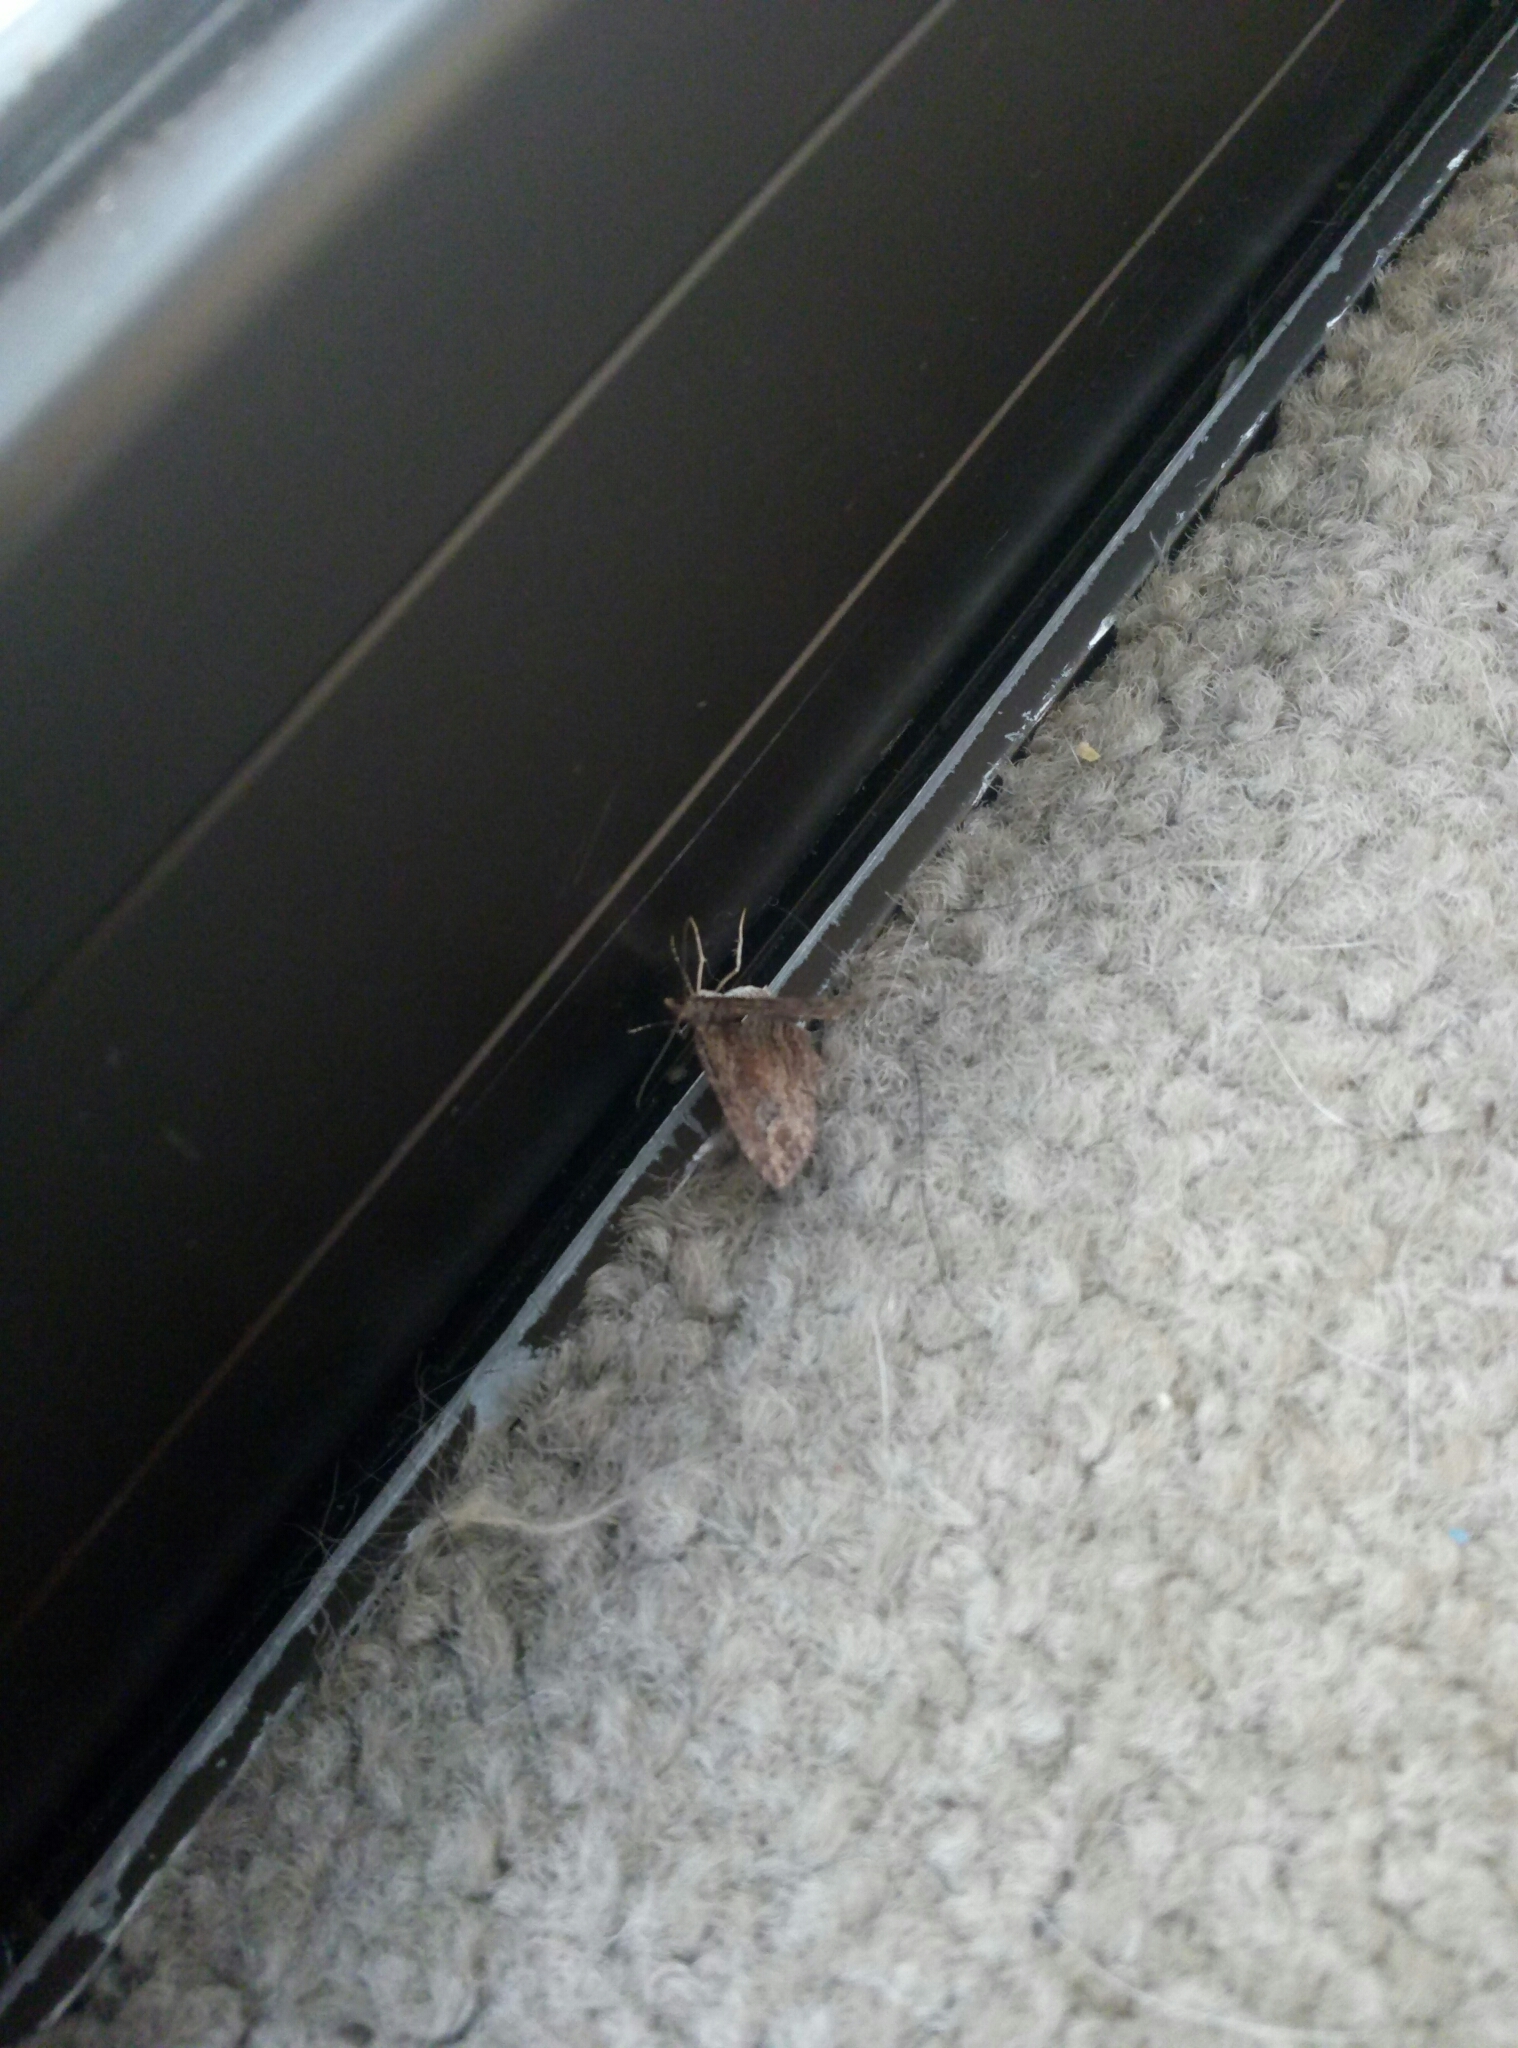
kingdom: Animalia
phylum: Arthropoda
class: Insecta
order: Lepidoptera
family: Geometridae
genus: Chloroclystis
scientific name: Chloroclystis filata
